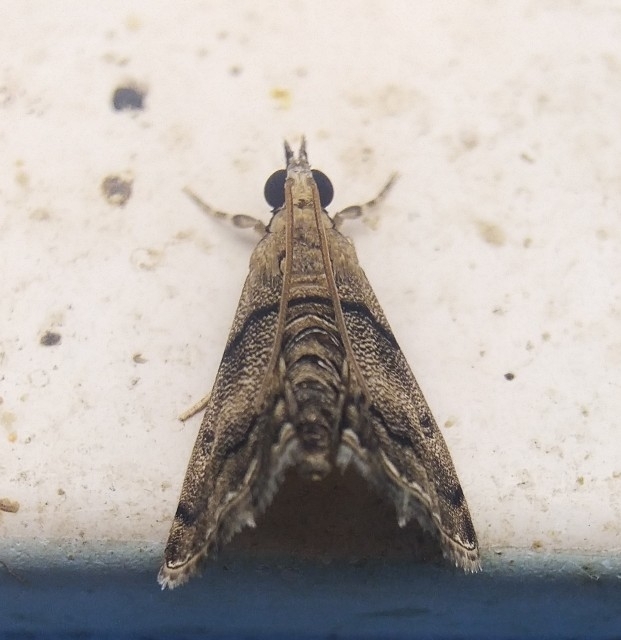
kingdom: Animalia
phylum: Arthropoda
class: Insecta
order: Lepidoptera
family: Crambidae
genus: Noorda
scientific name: Noorda blitealis
